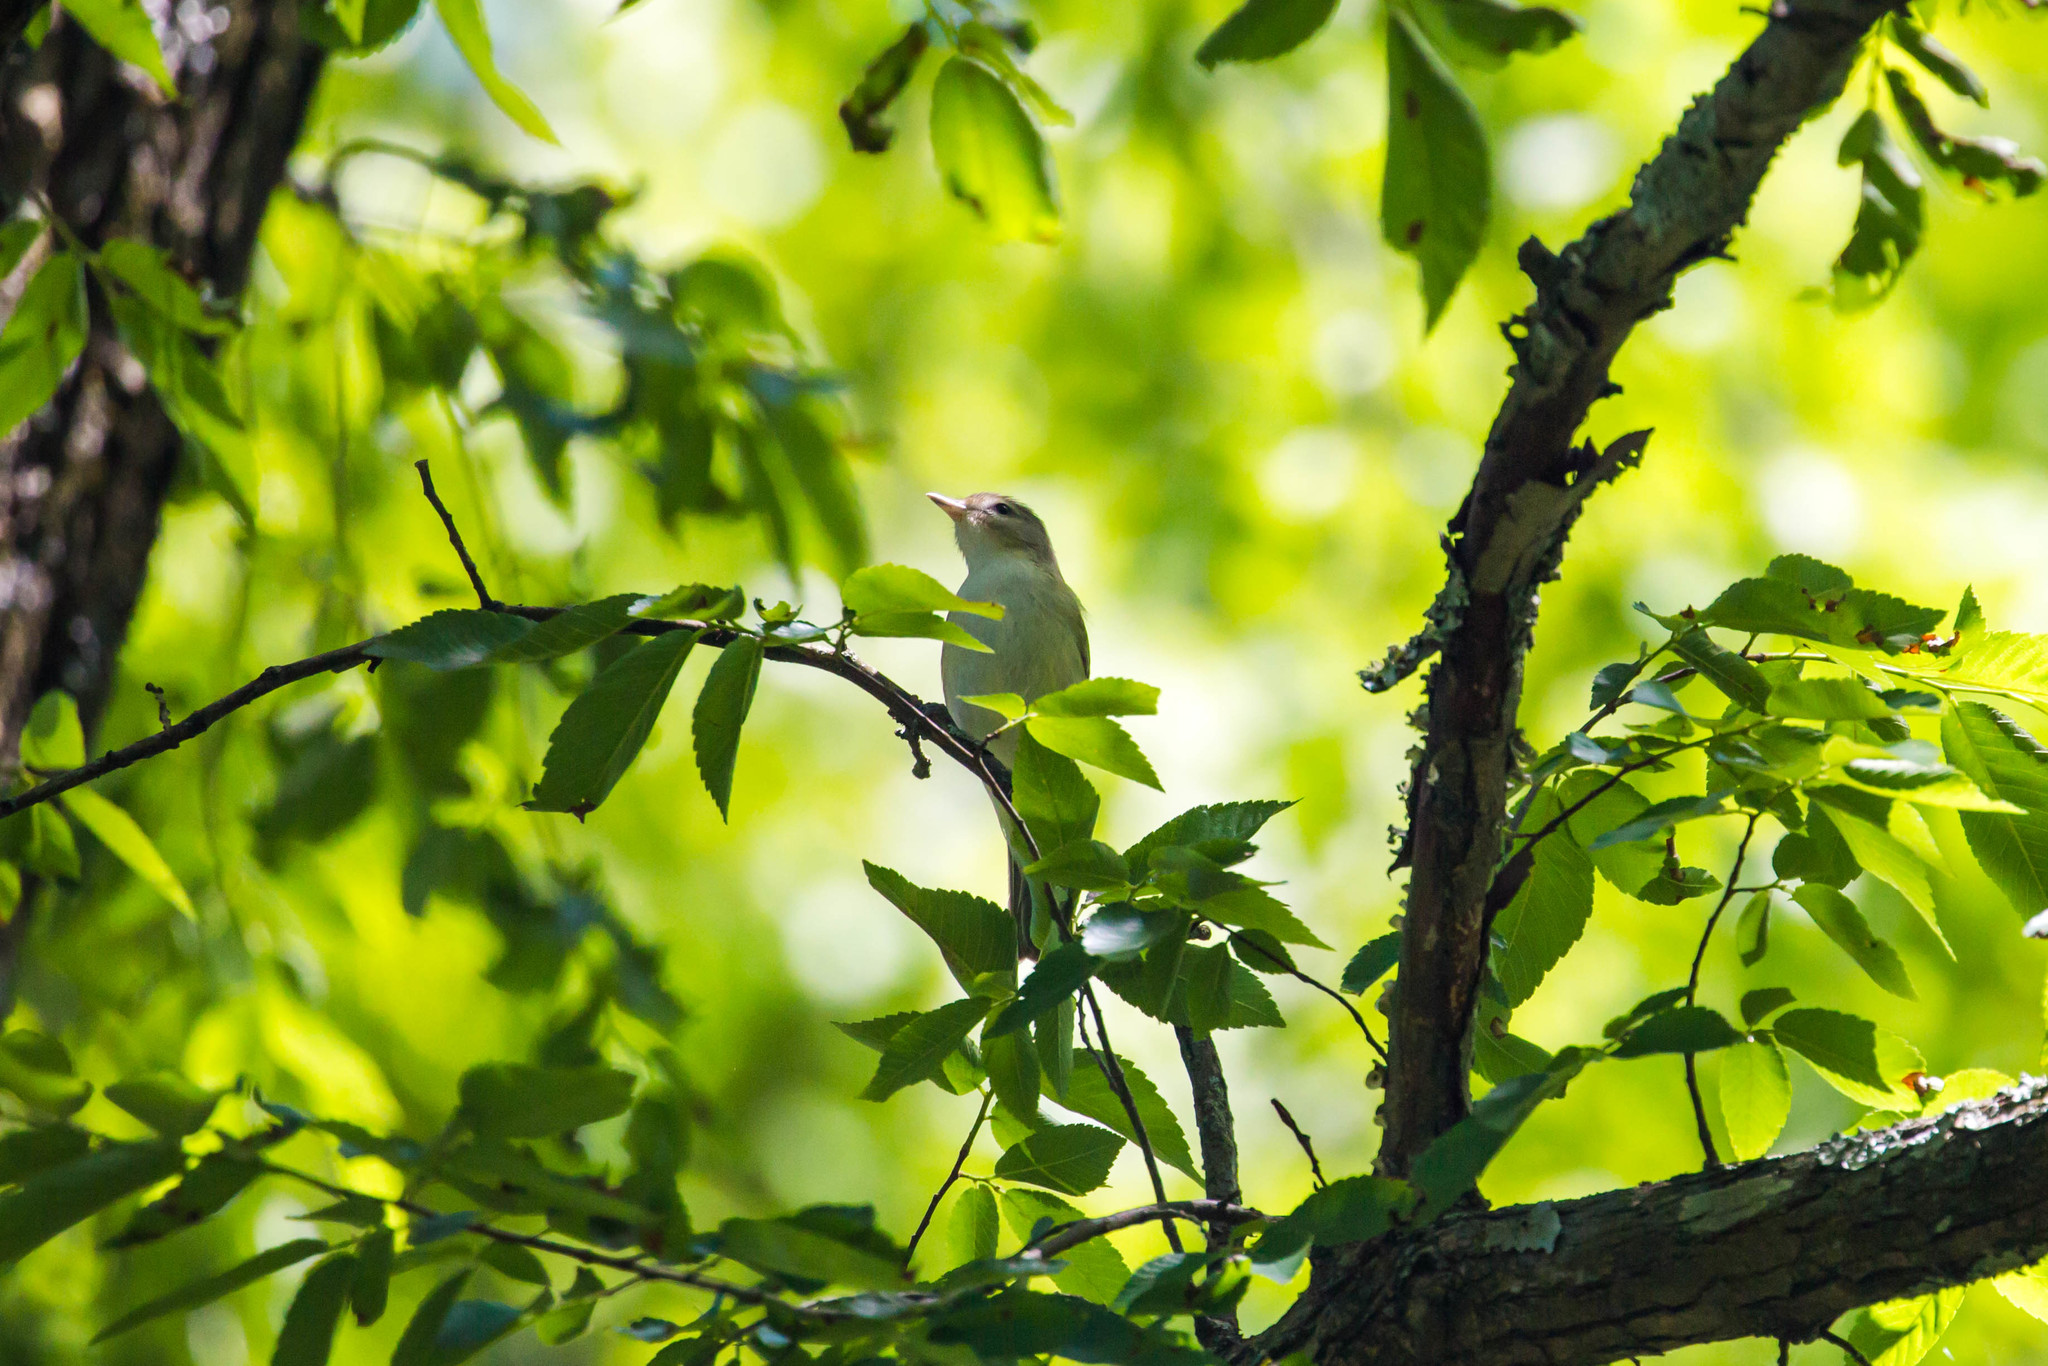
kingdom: Animalia
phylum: Chordata
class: Aves
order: Passeriformes
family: Vireonidae
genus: Vireo
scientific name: Vireo gilvus
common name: Warbling vireo
